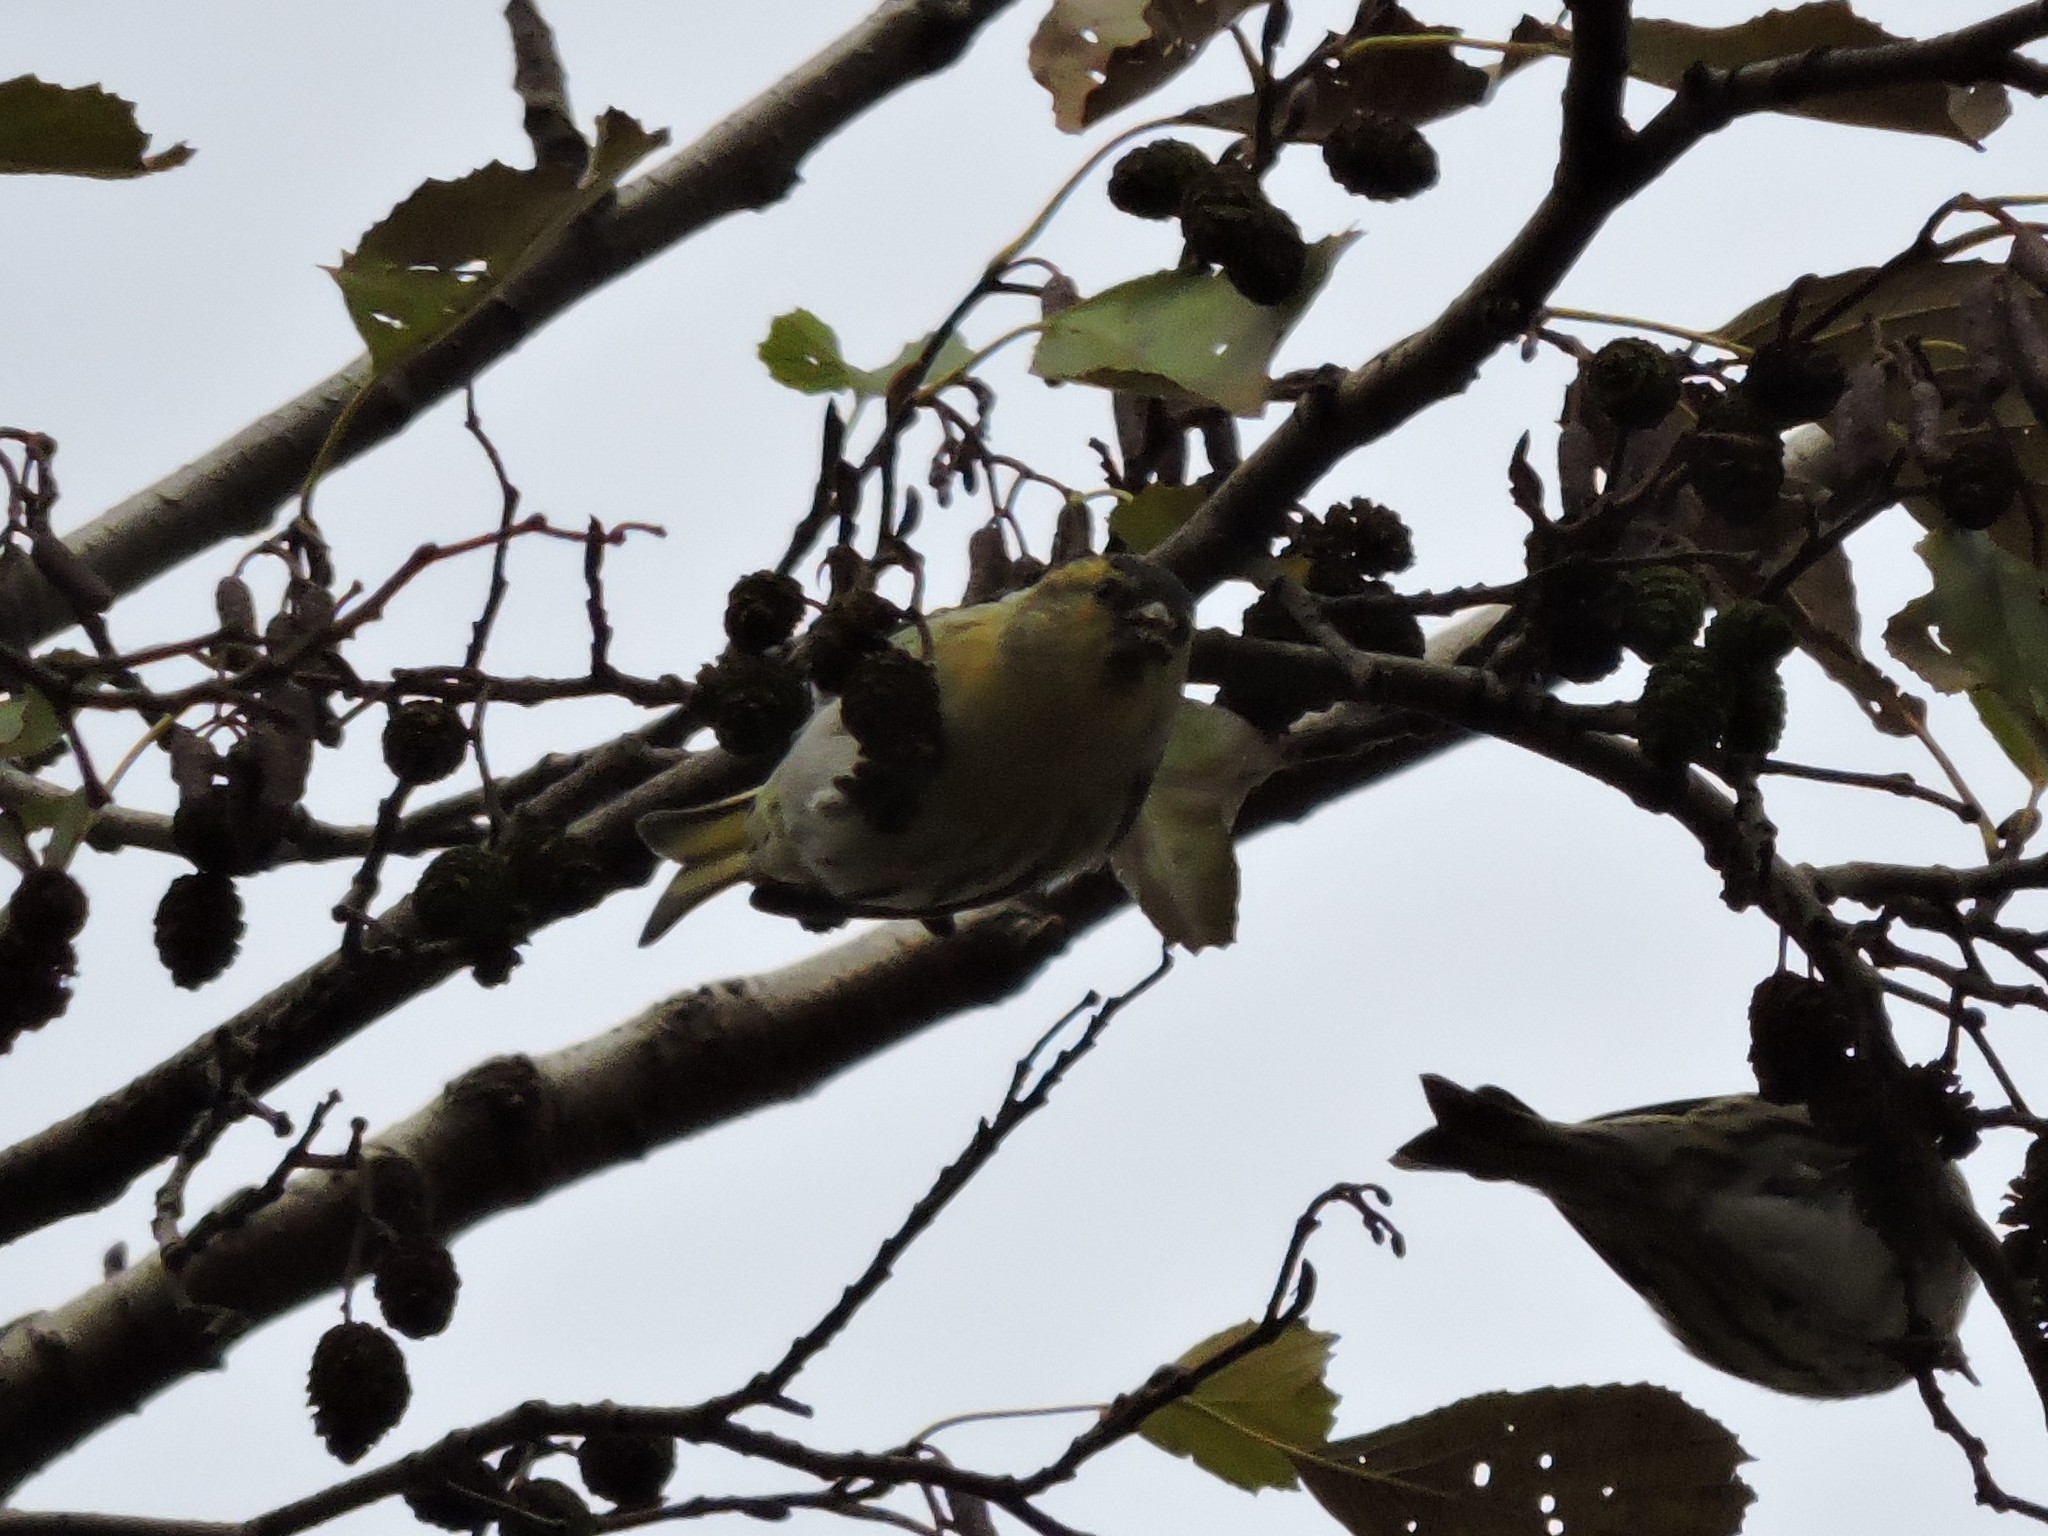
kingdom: Animalia
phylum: Chordata
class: Aves
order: Passeriformes
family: Fringillidae
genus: Spinus
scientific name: Spinus spinus
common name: Eurasian siskin
